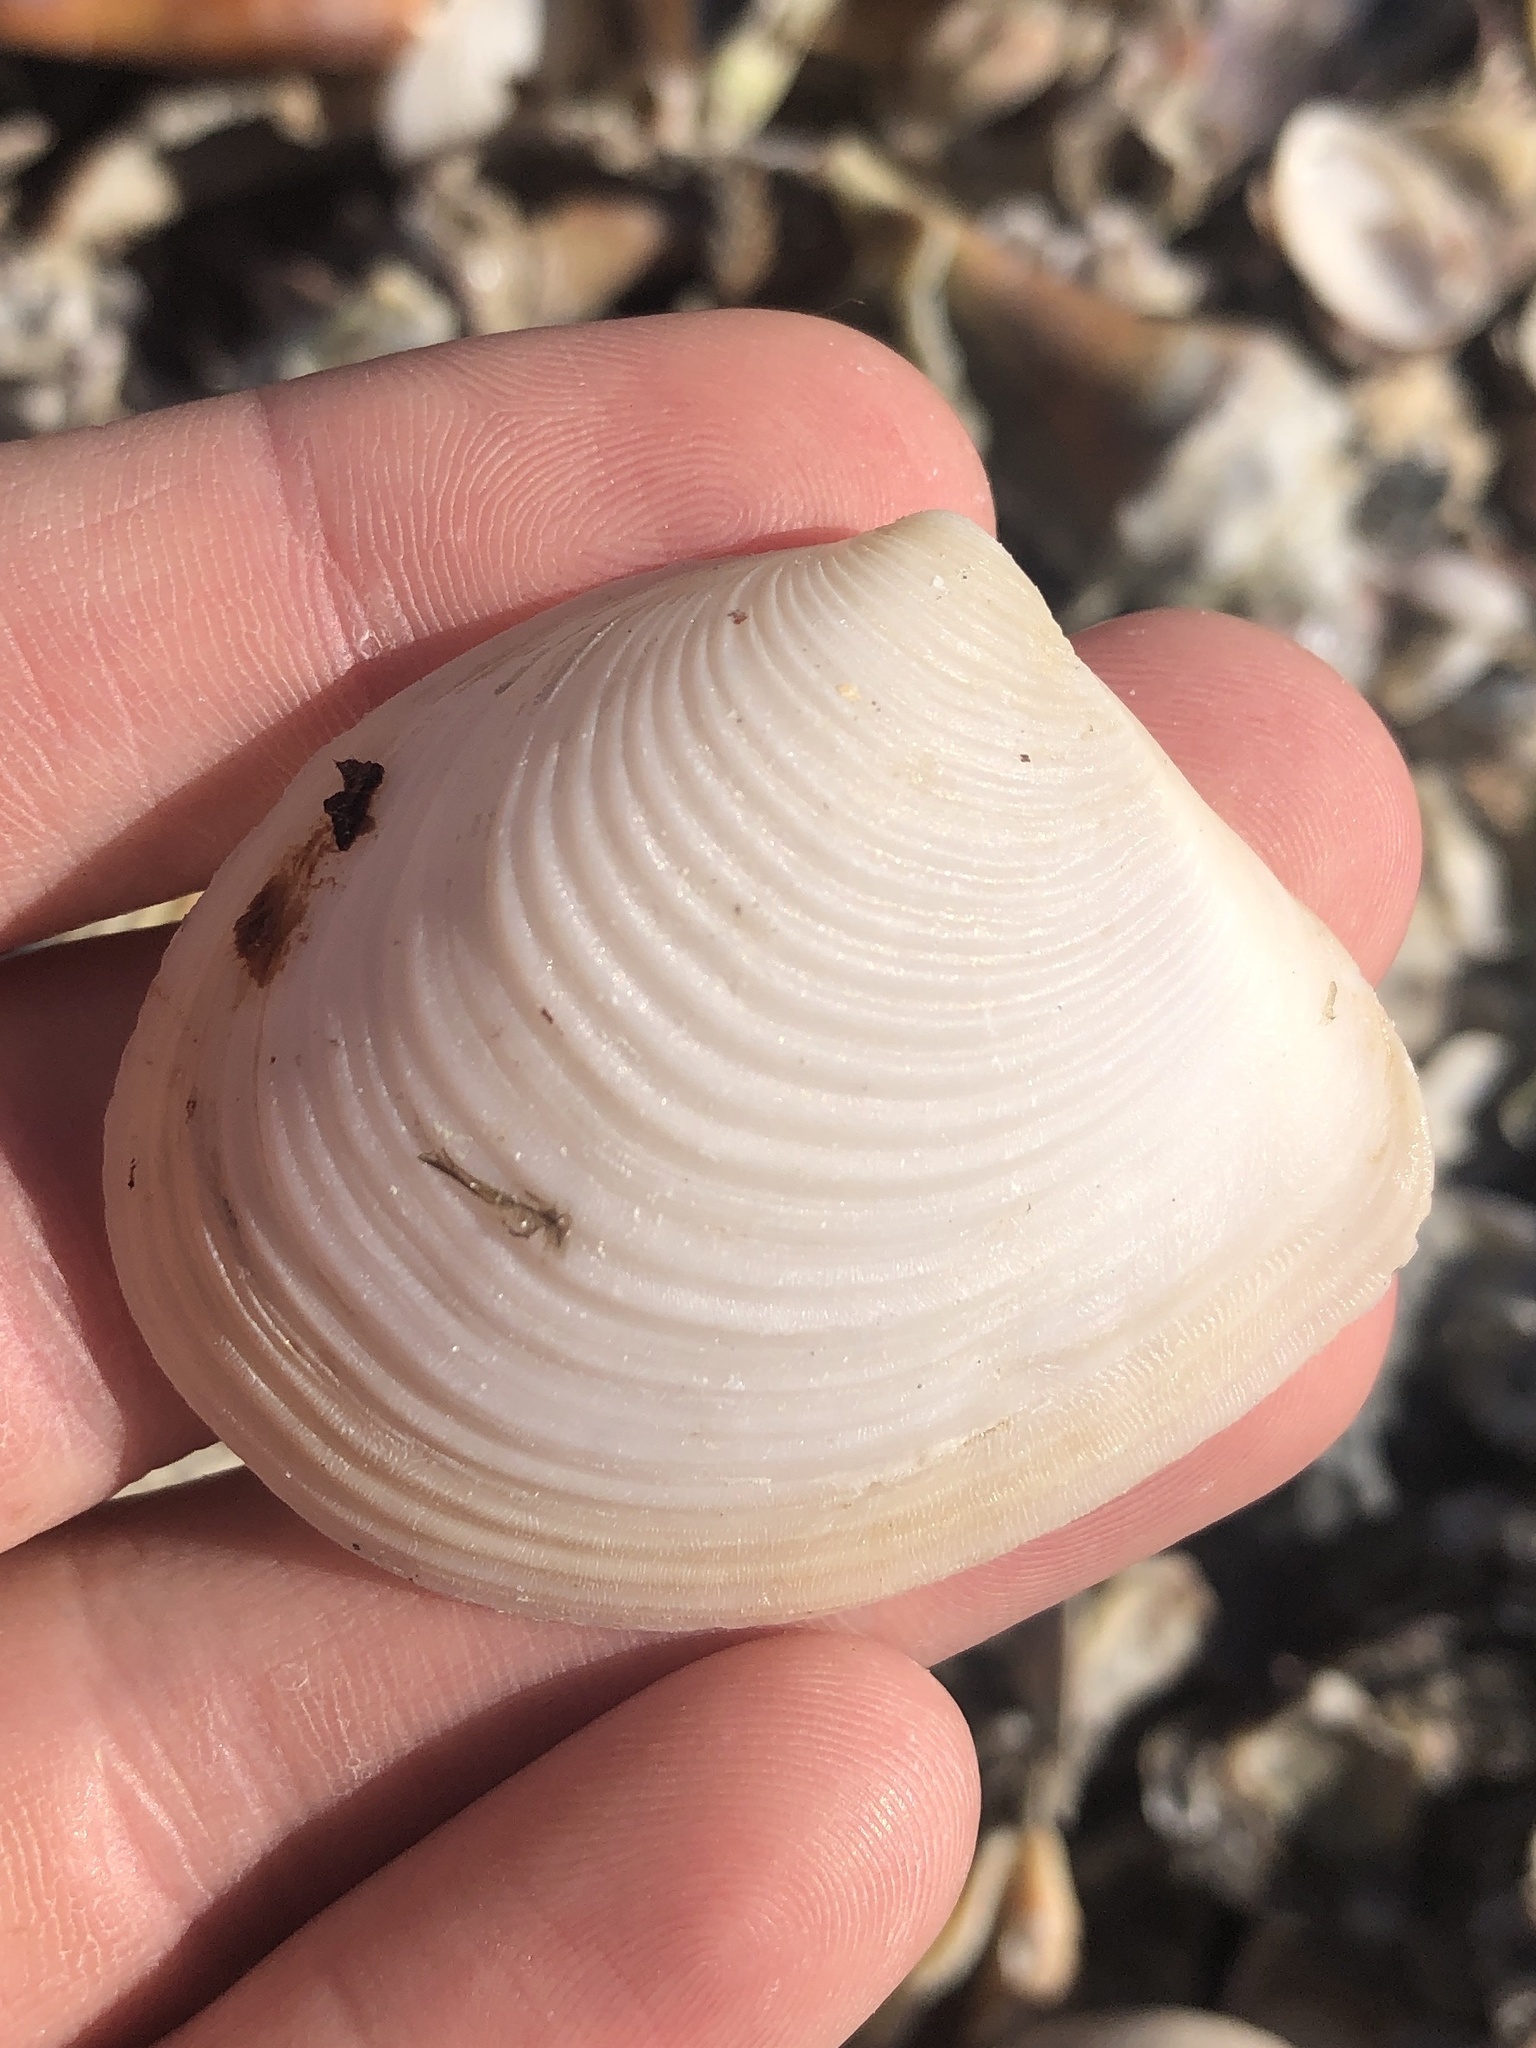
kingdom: Animalia
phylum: Mollusca
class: Bivalvia
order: Venerida
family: Anatinellidae
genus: Raeta
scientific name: Raeta plicatella
